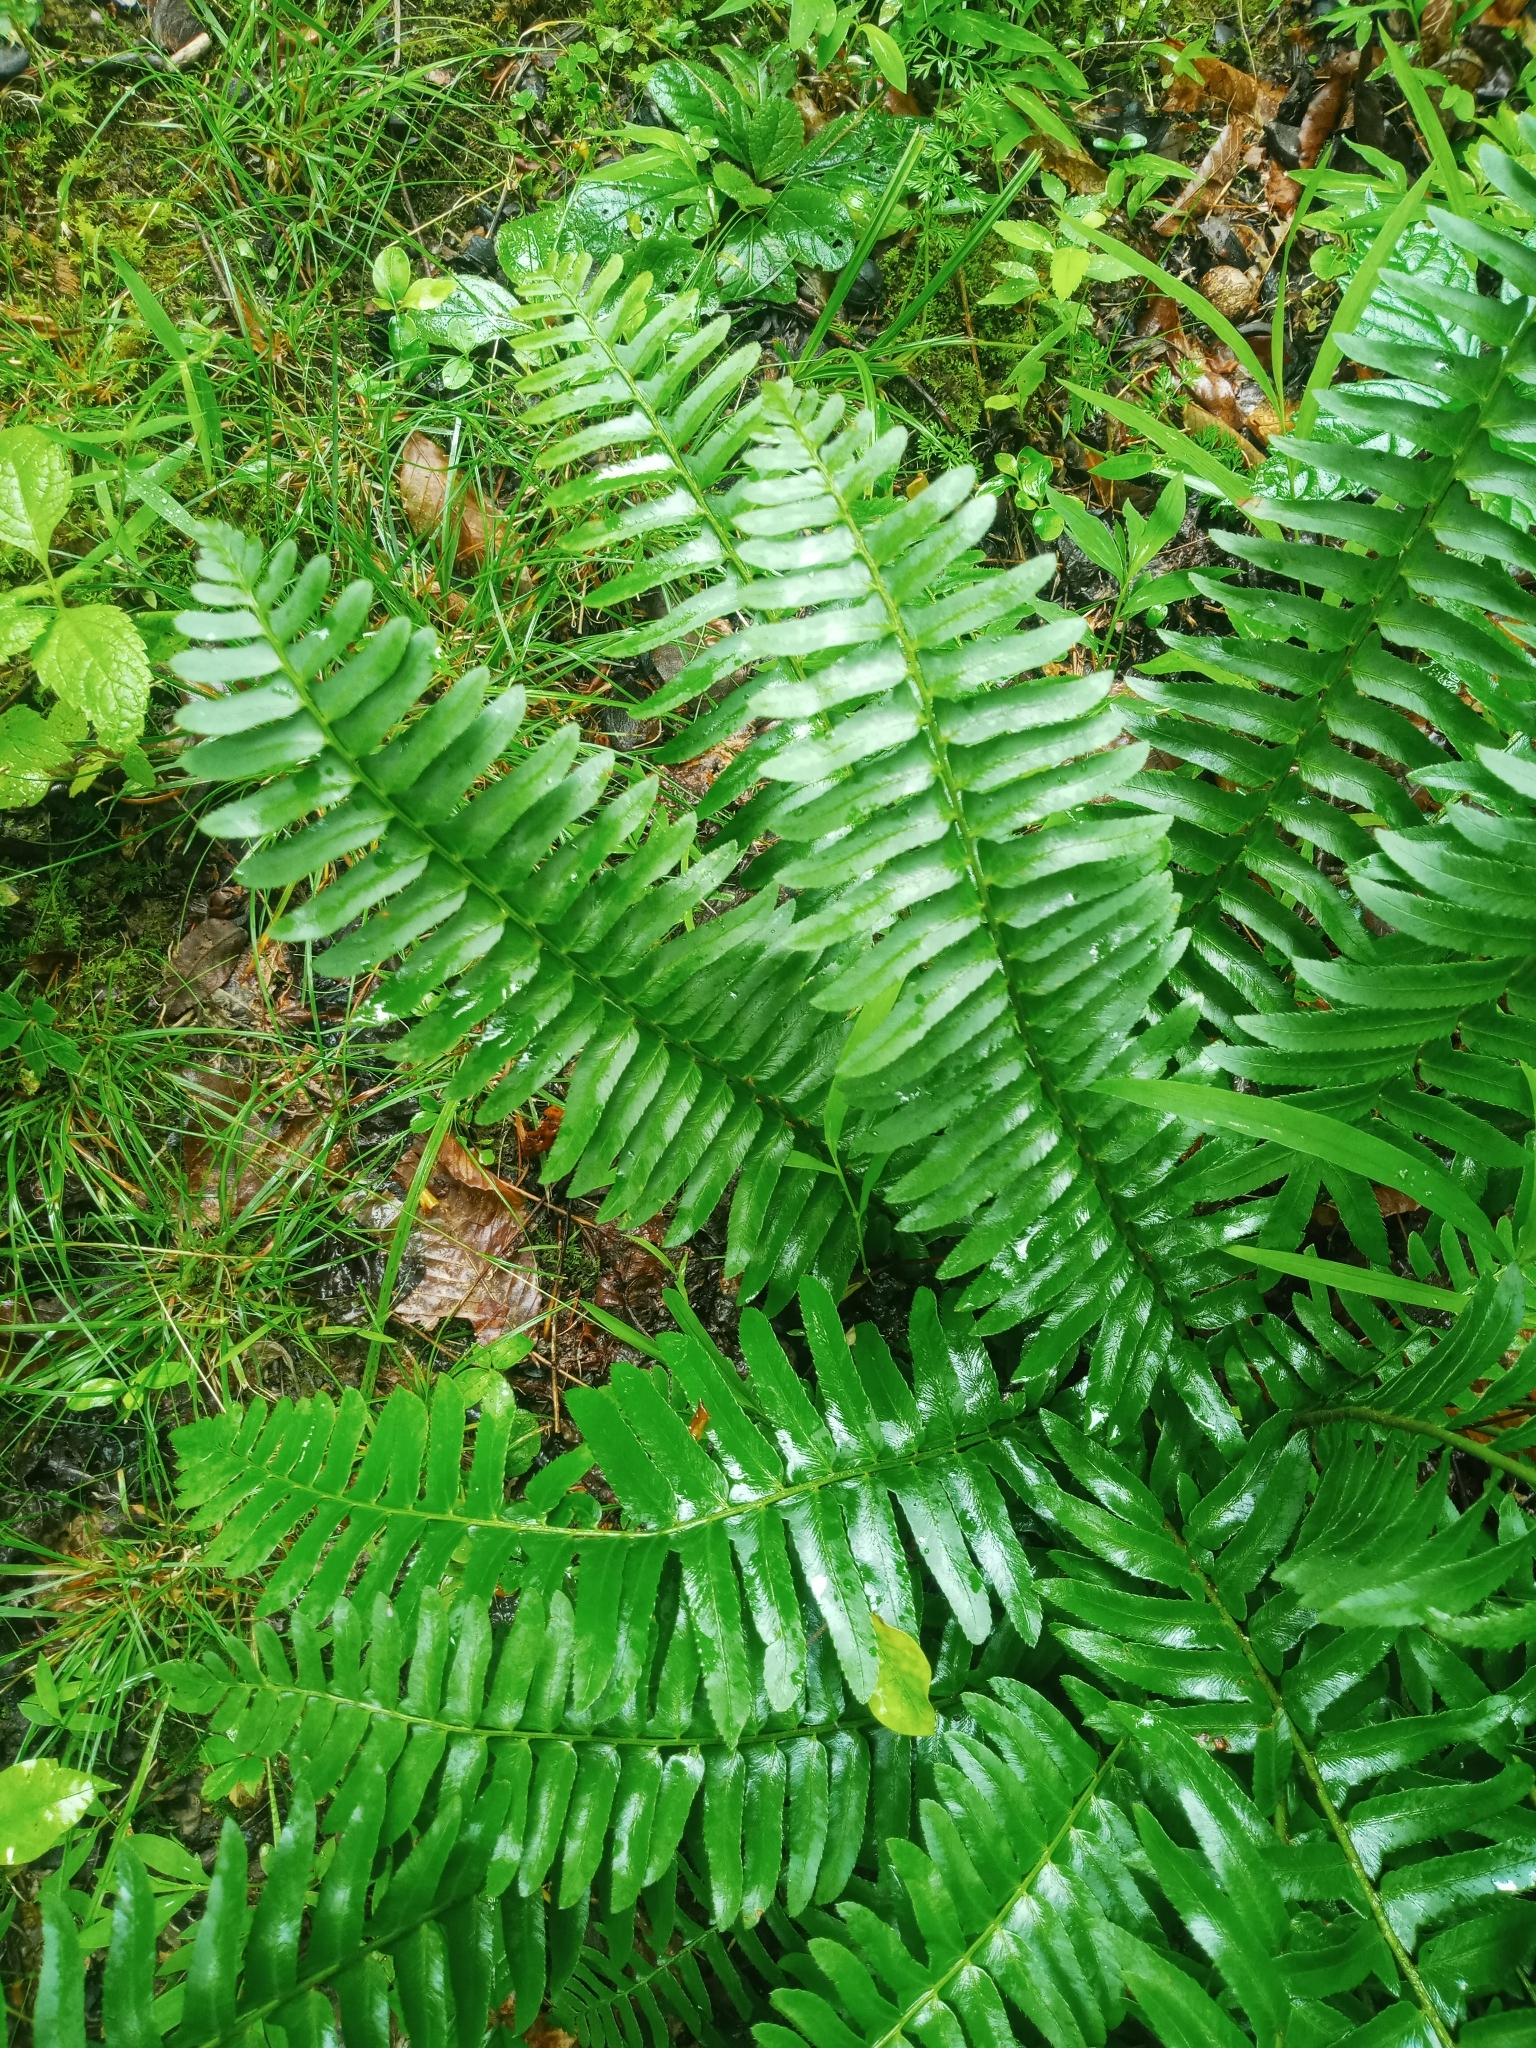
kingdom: Plantae
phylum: Tracheophyta
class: Polypodiopsida
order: Polypodiales
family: Dryopteridaceae
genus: Polystichum
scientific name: Polystichum acrostichoides
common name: Christmas fern
